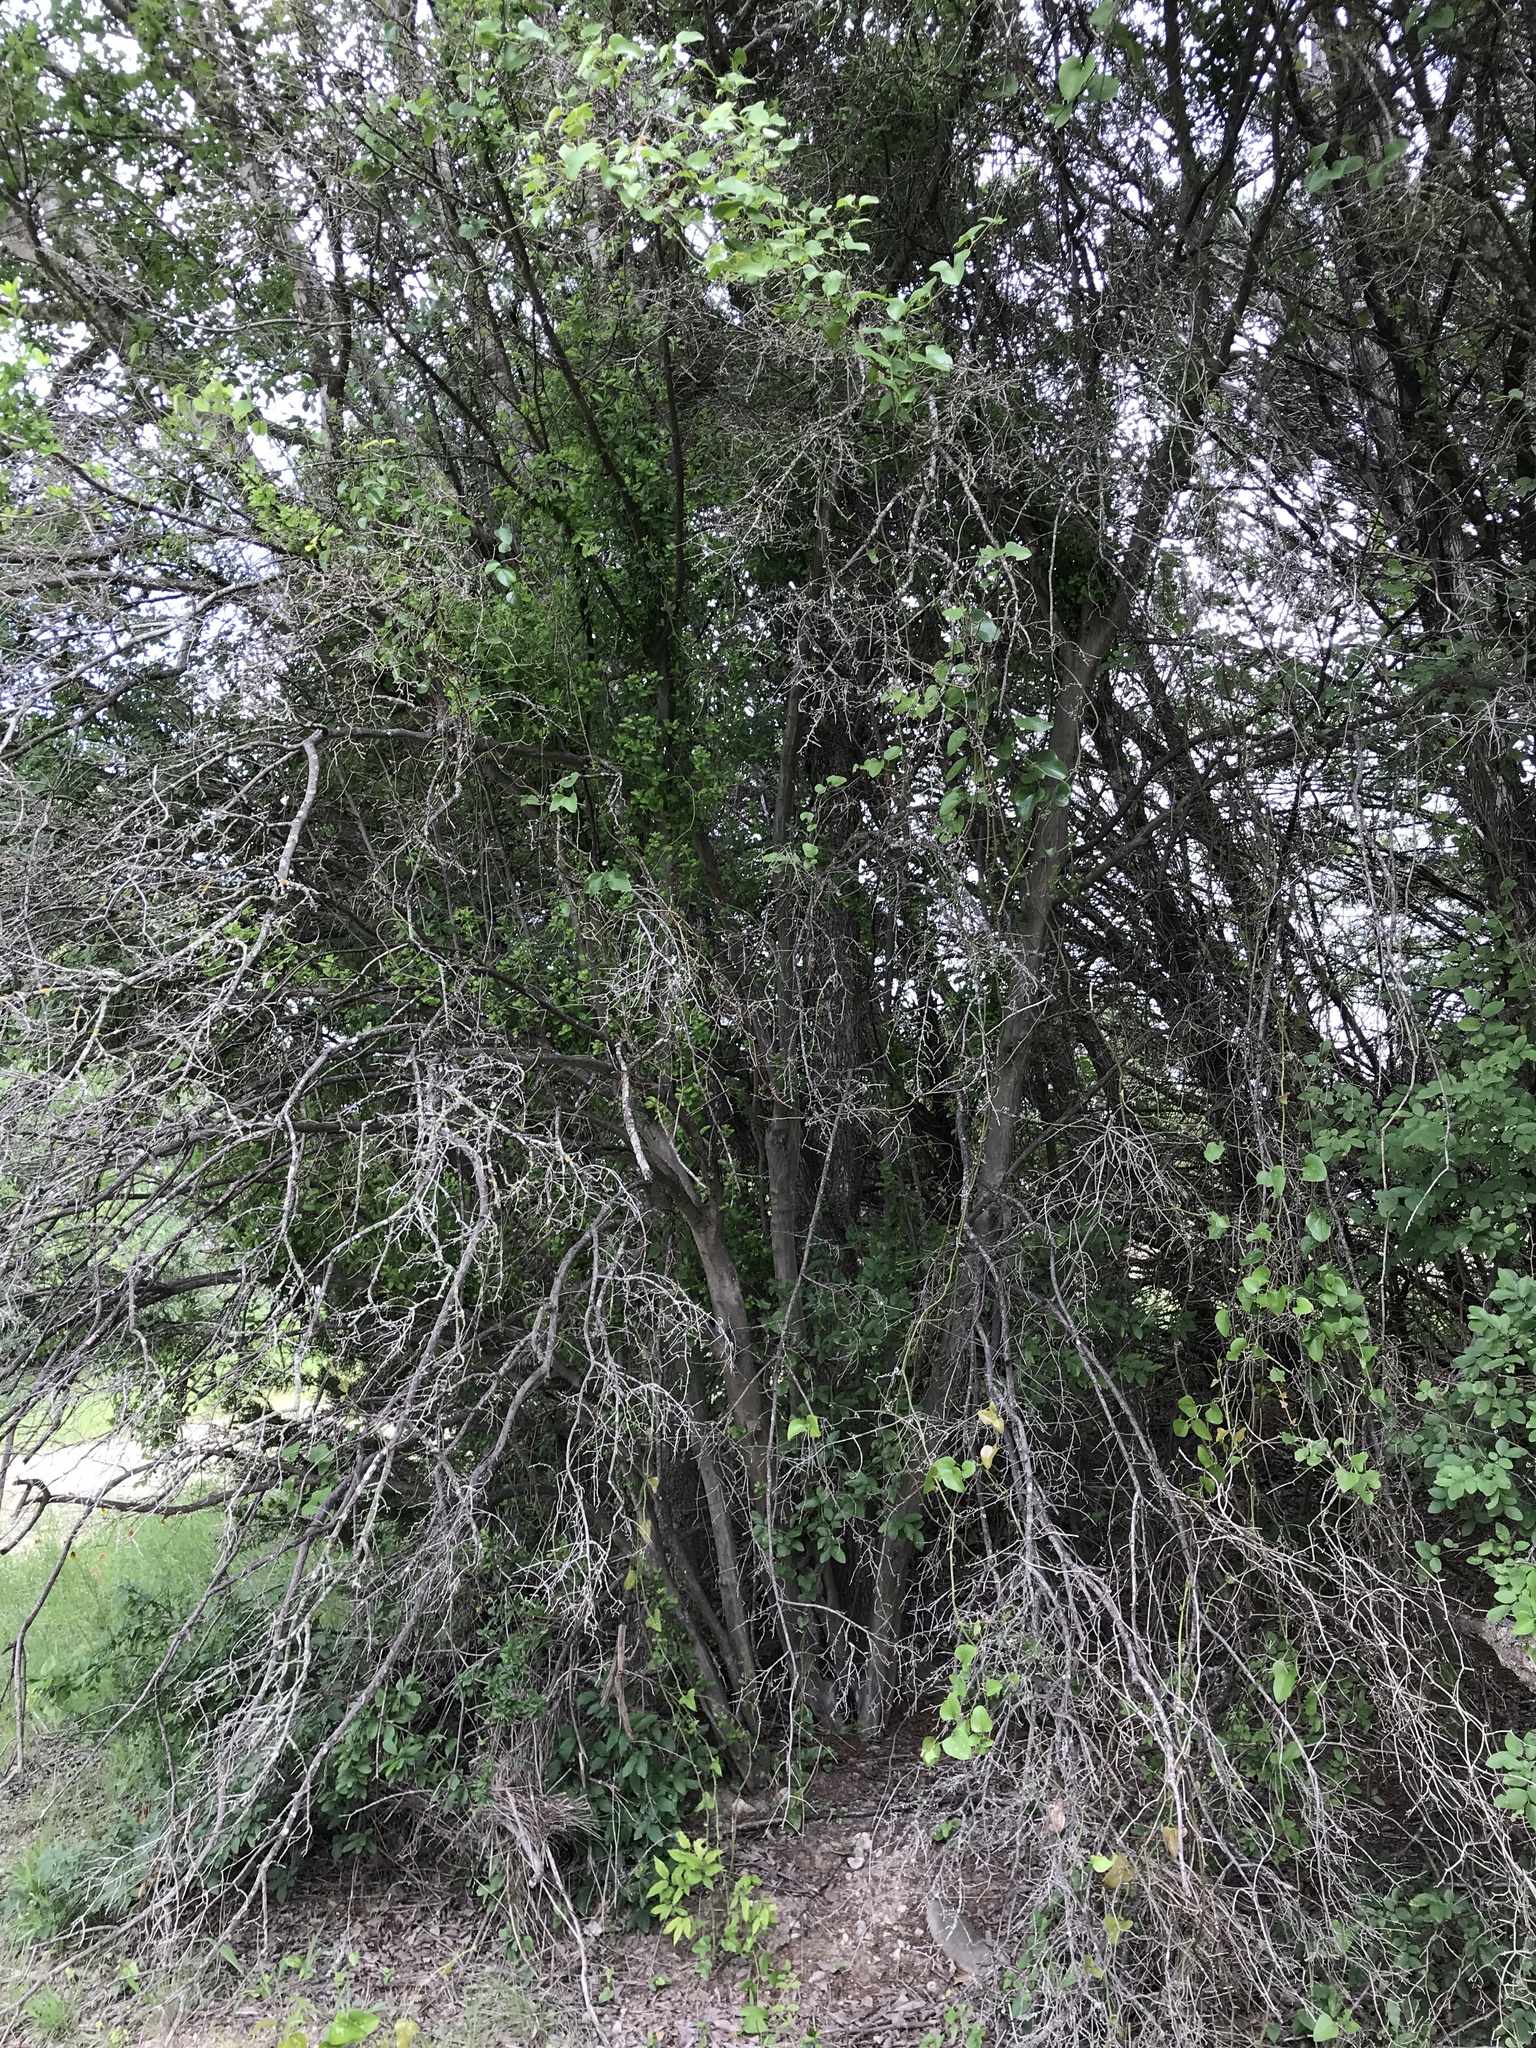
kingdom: Plantae
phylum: Tracheophyta
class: Magnoliopsida
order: Ericales
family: Ebenaceae
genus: Diospyros
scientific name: Diospyros texana
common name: Texas persimmon
